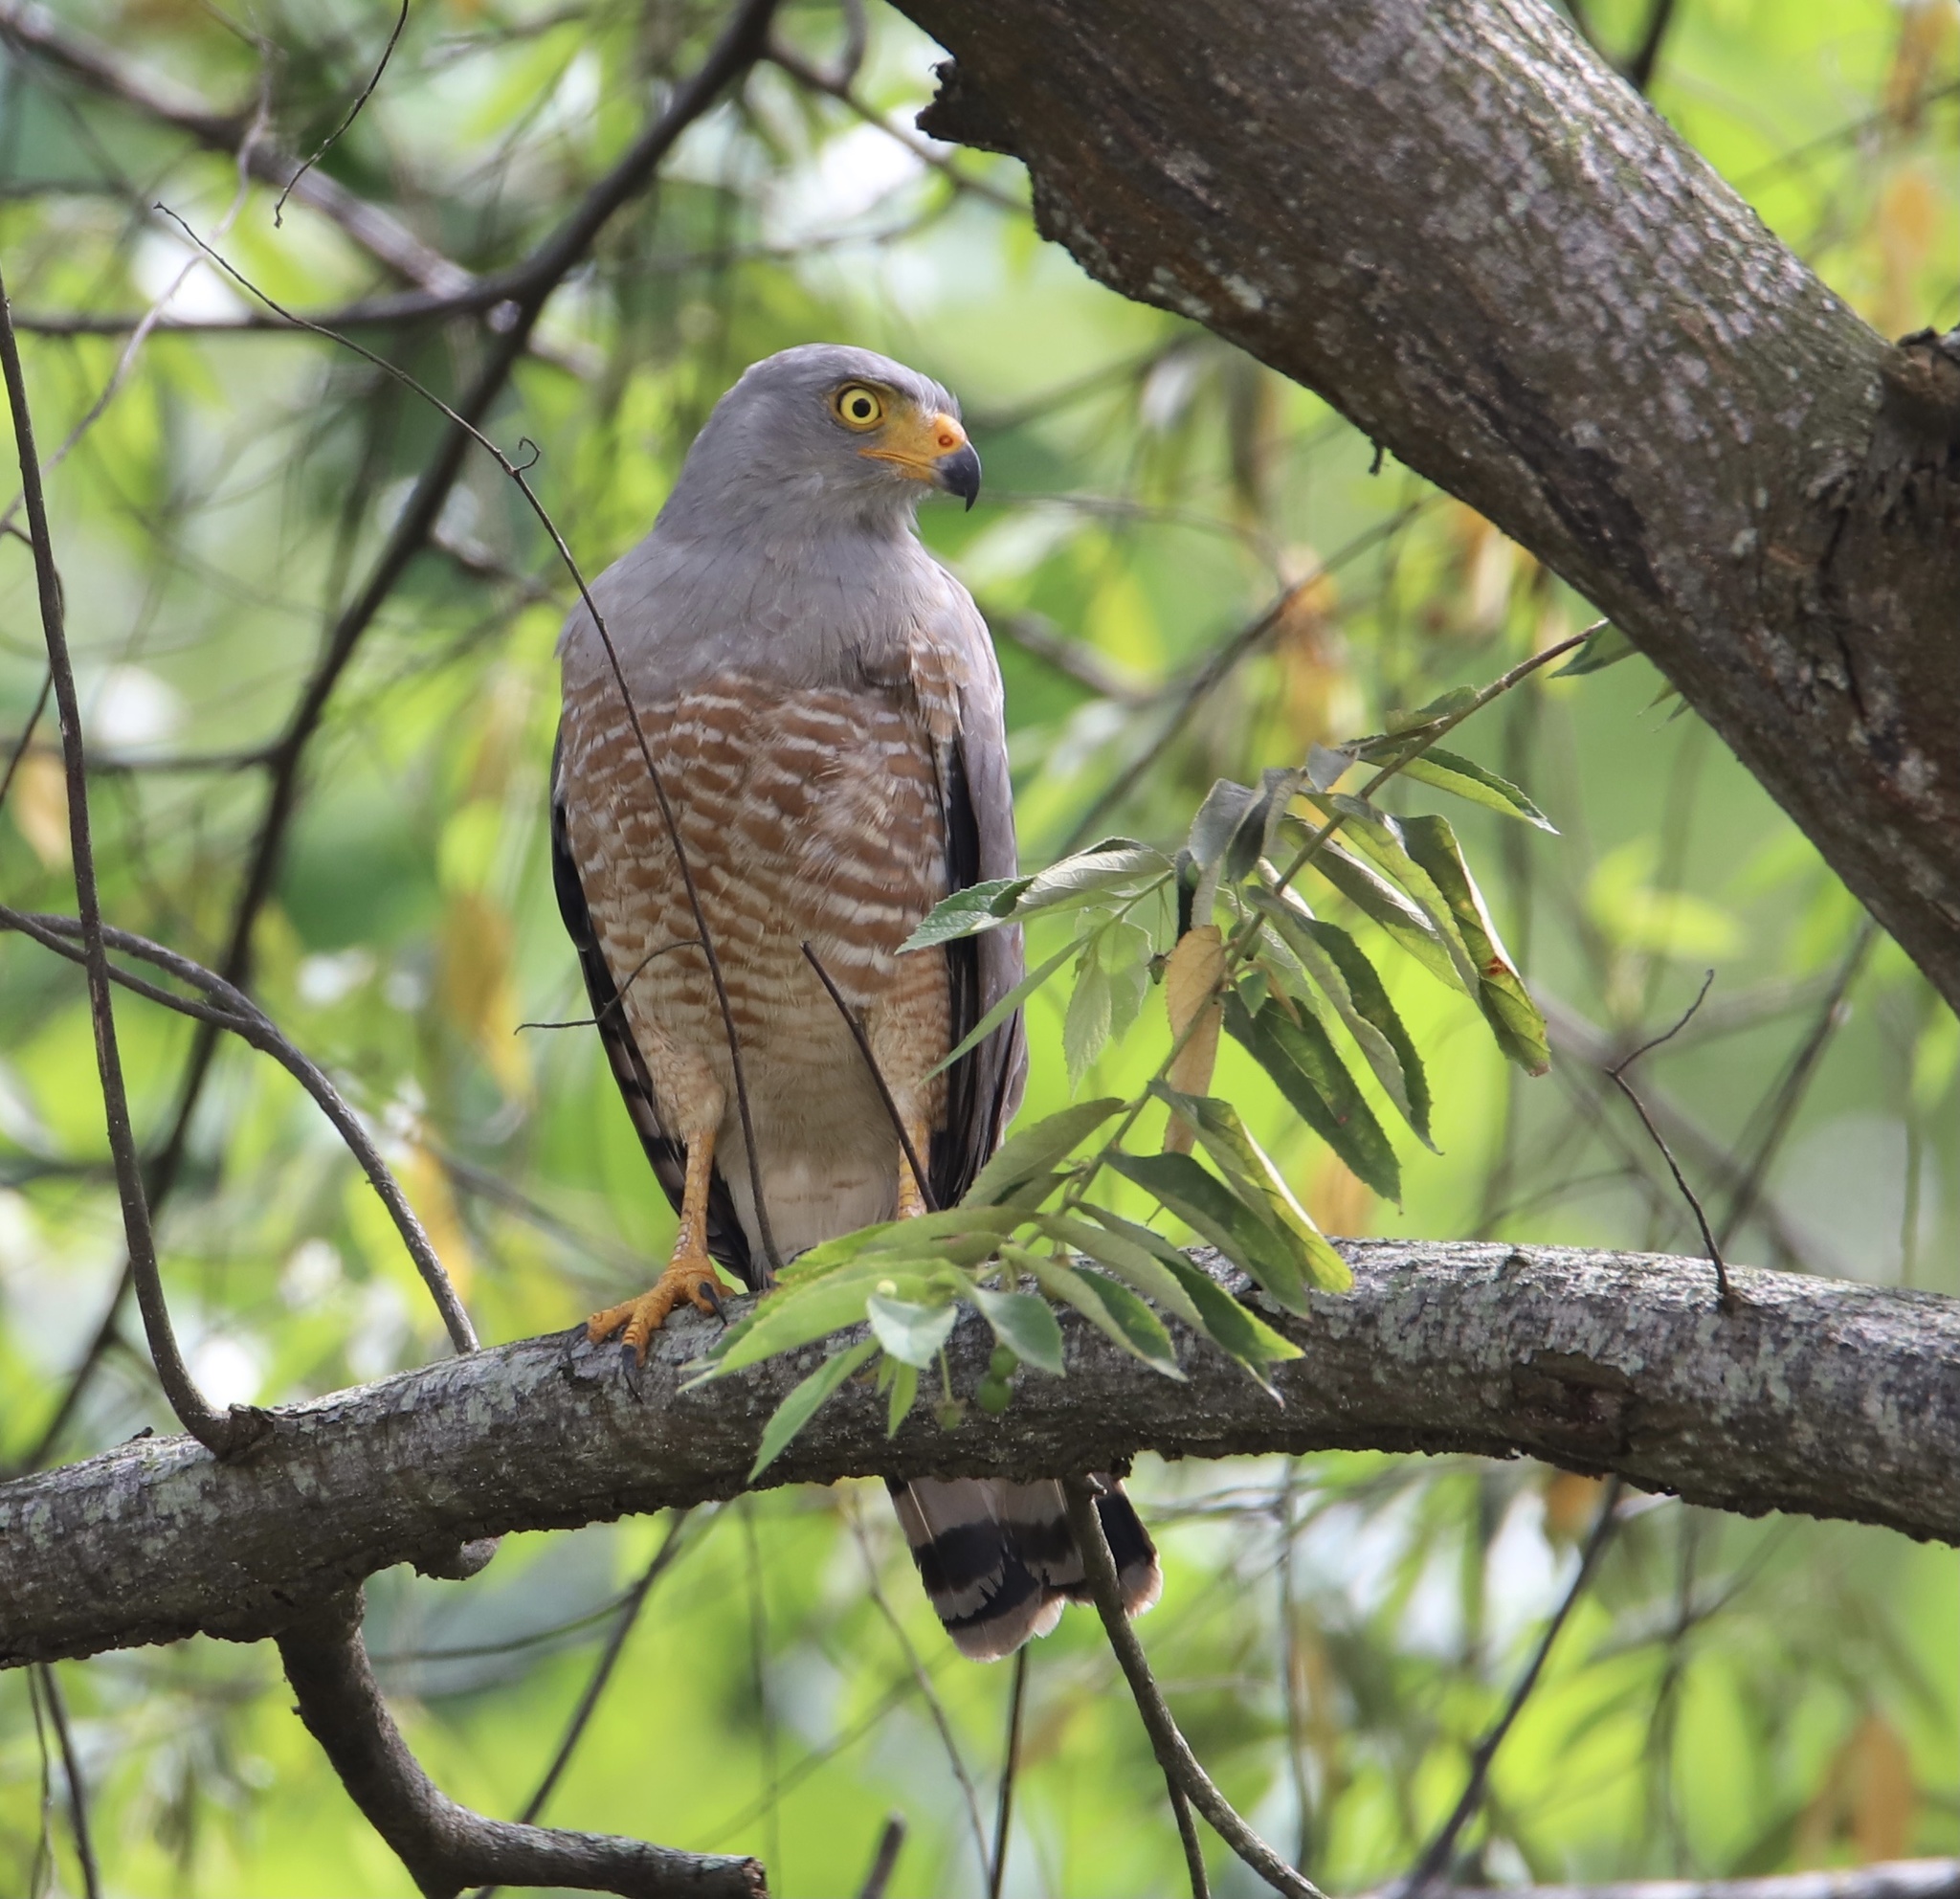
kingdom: Animalia
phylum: Chordata
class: Aves
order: Accipitriformes
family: Accipitridae
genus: Rupornis
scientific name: Rupornis magnirostris
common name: Roadside hawk
